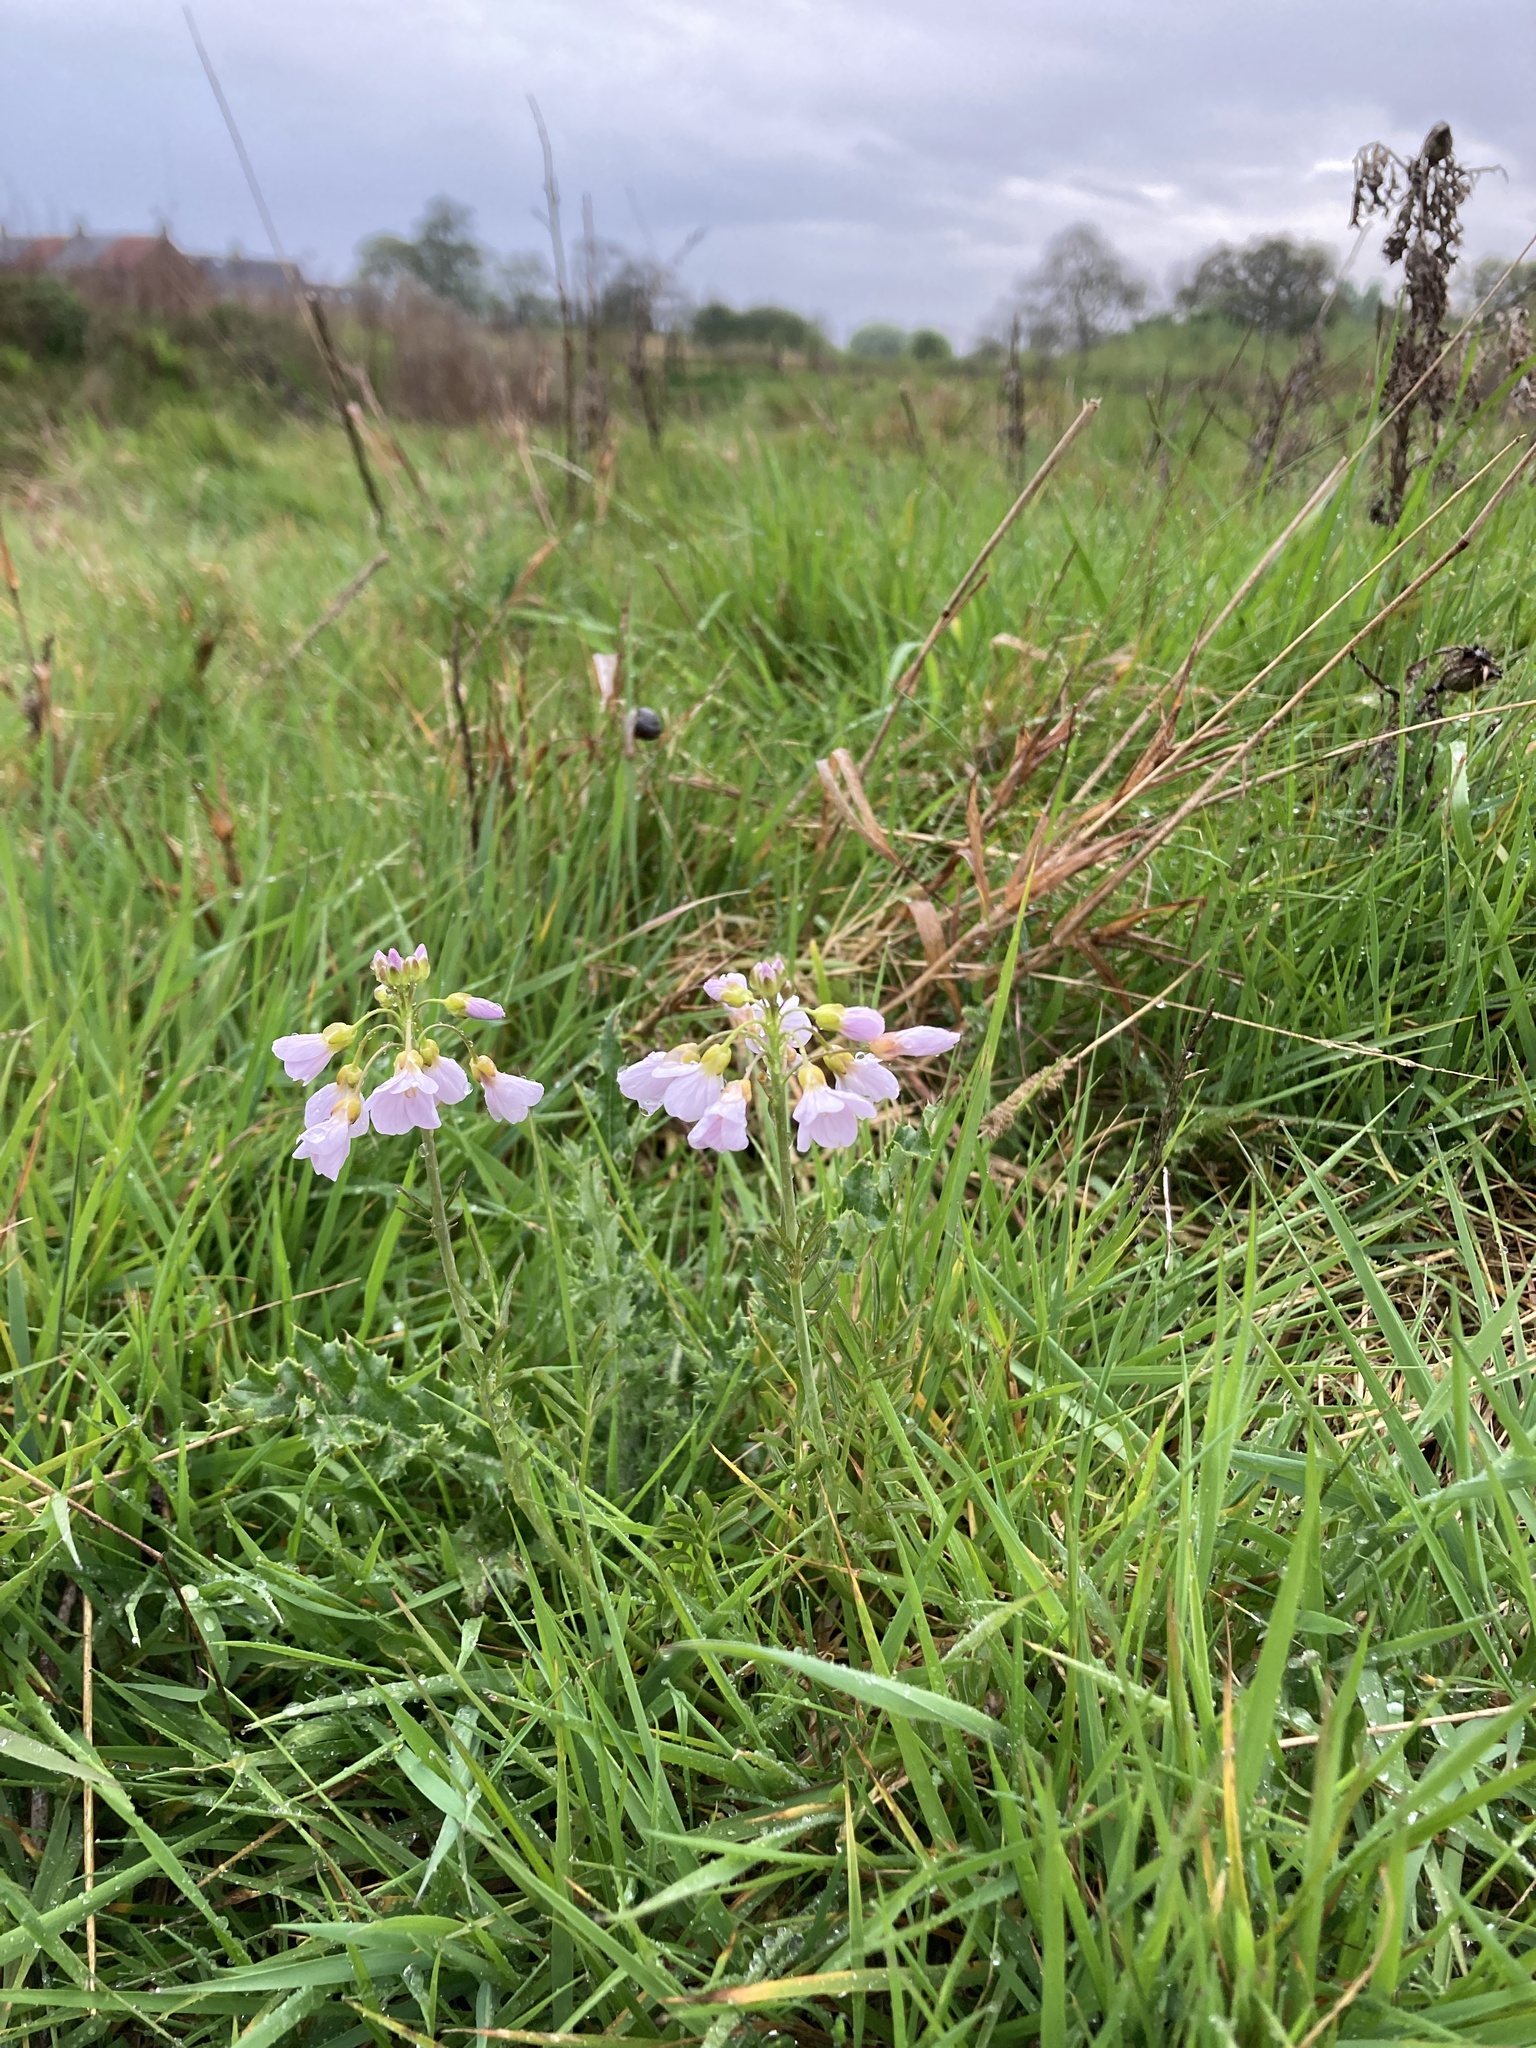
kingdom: Plantae
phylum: Tracheophyta
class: Magnoliopsida
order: Brassicales
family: Brassicaceae
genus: Cardamine
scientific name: Cardamine pratensis
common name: Cuckoo flower
